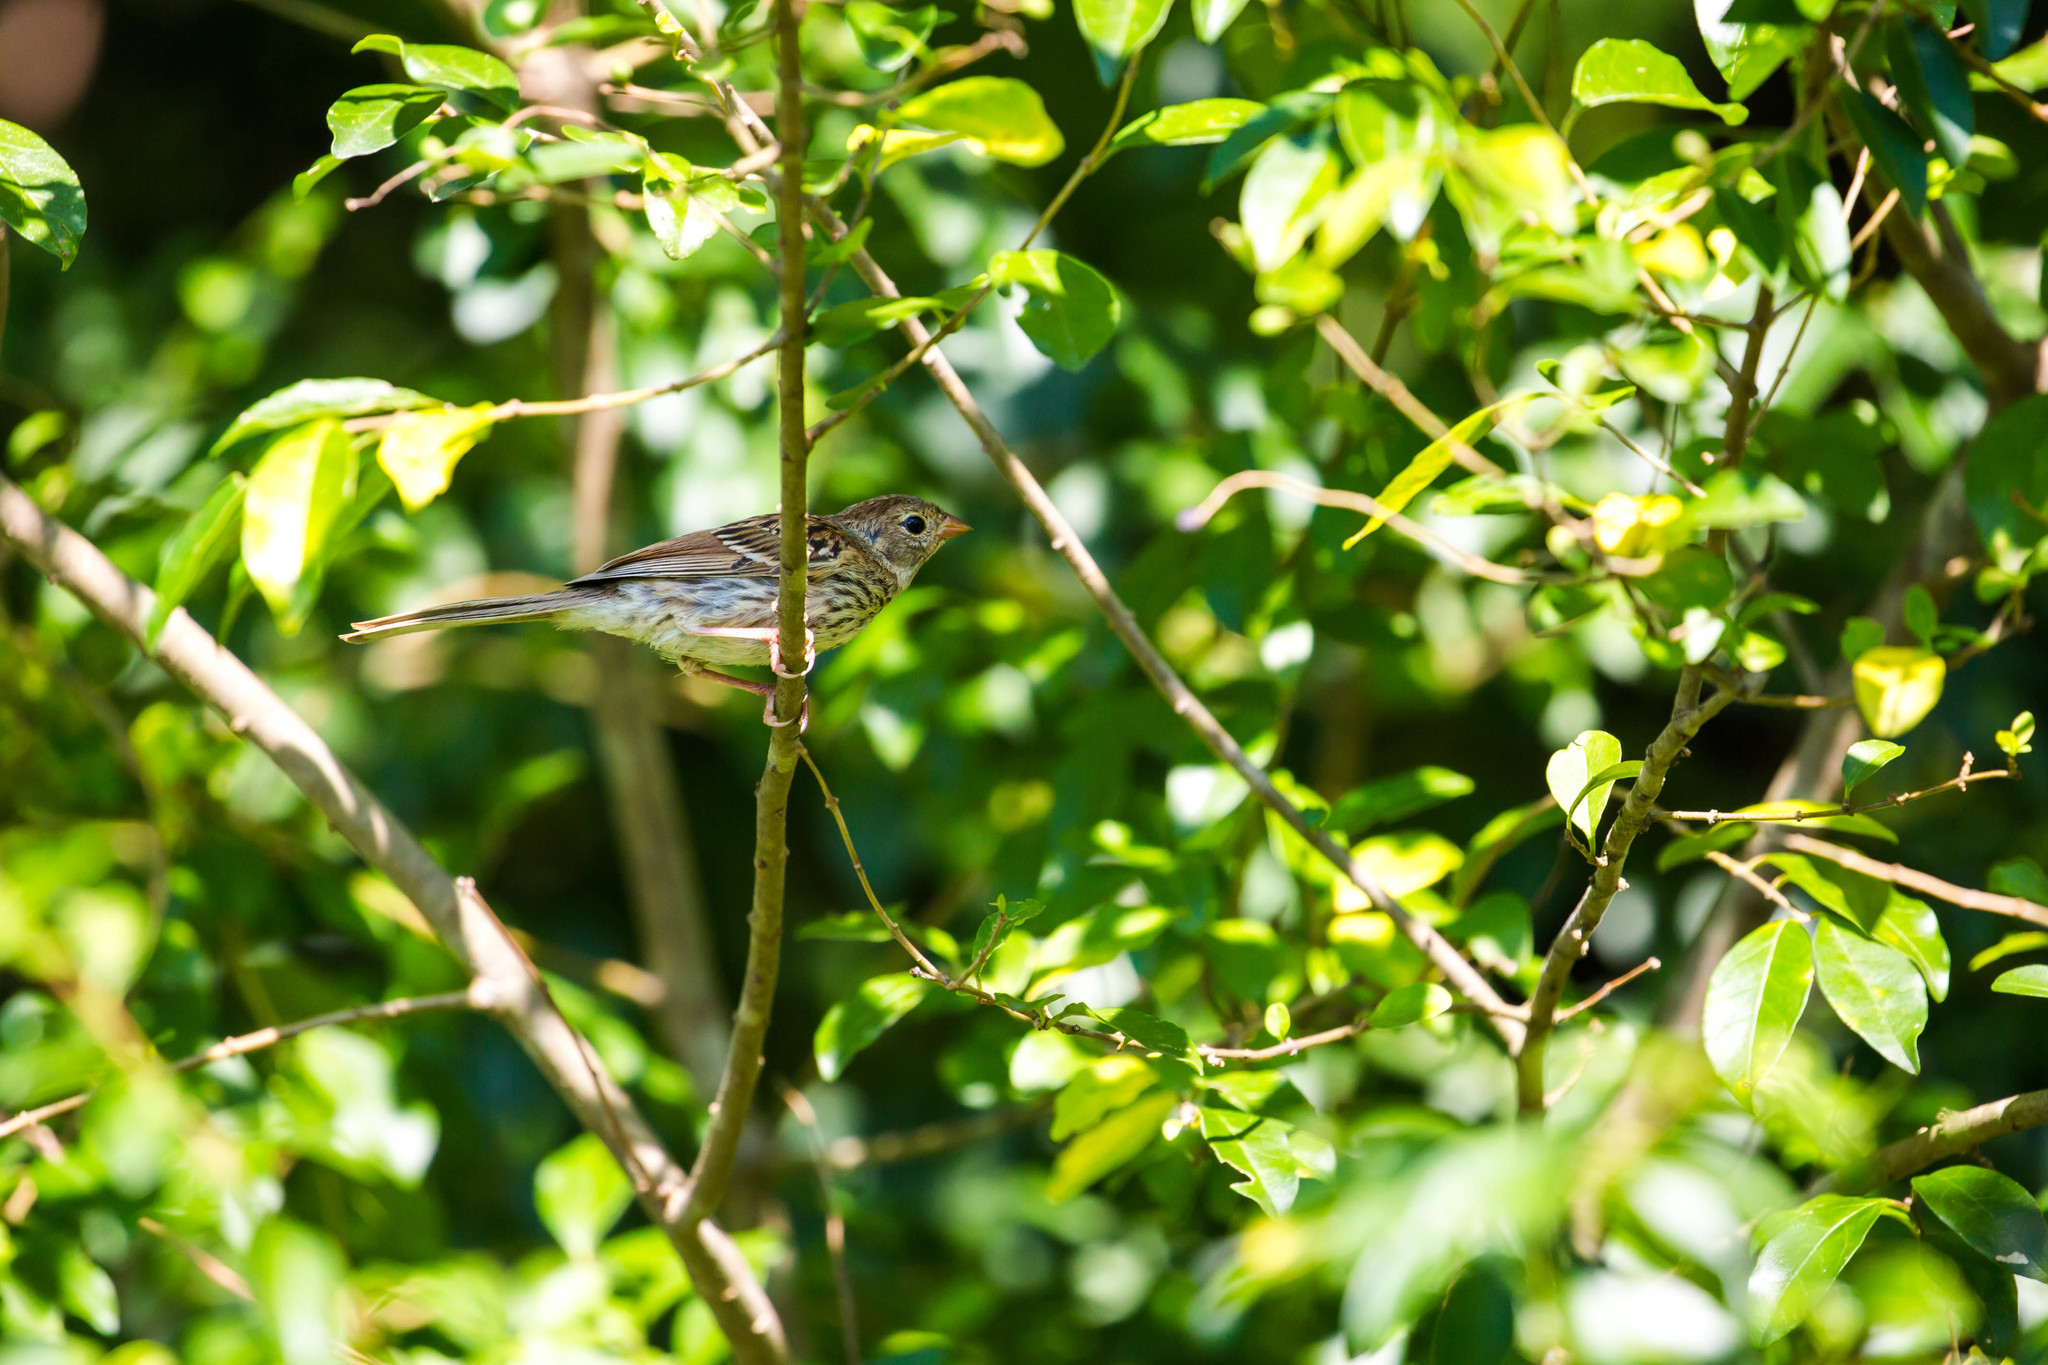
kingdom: Animalia
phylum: Chordata
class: Aves
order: Passeriformes
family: Passerellidae
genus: Spizella
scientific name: Spizella pusilla
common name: Field sparrow
